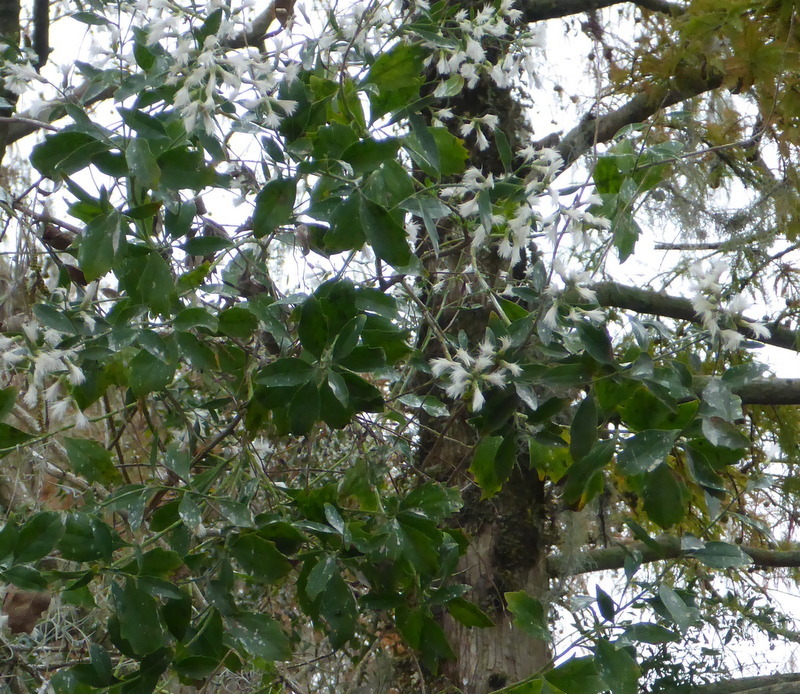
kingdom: Plantae
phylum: Tracheophyta
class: Magnoliopsida
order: Asterales
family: Asteraceae
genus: Baccharis
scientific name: Baccharis halimifolia
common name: Eastern baccharis
